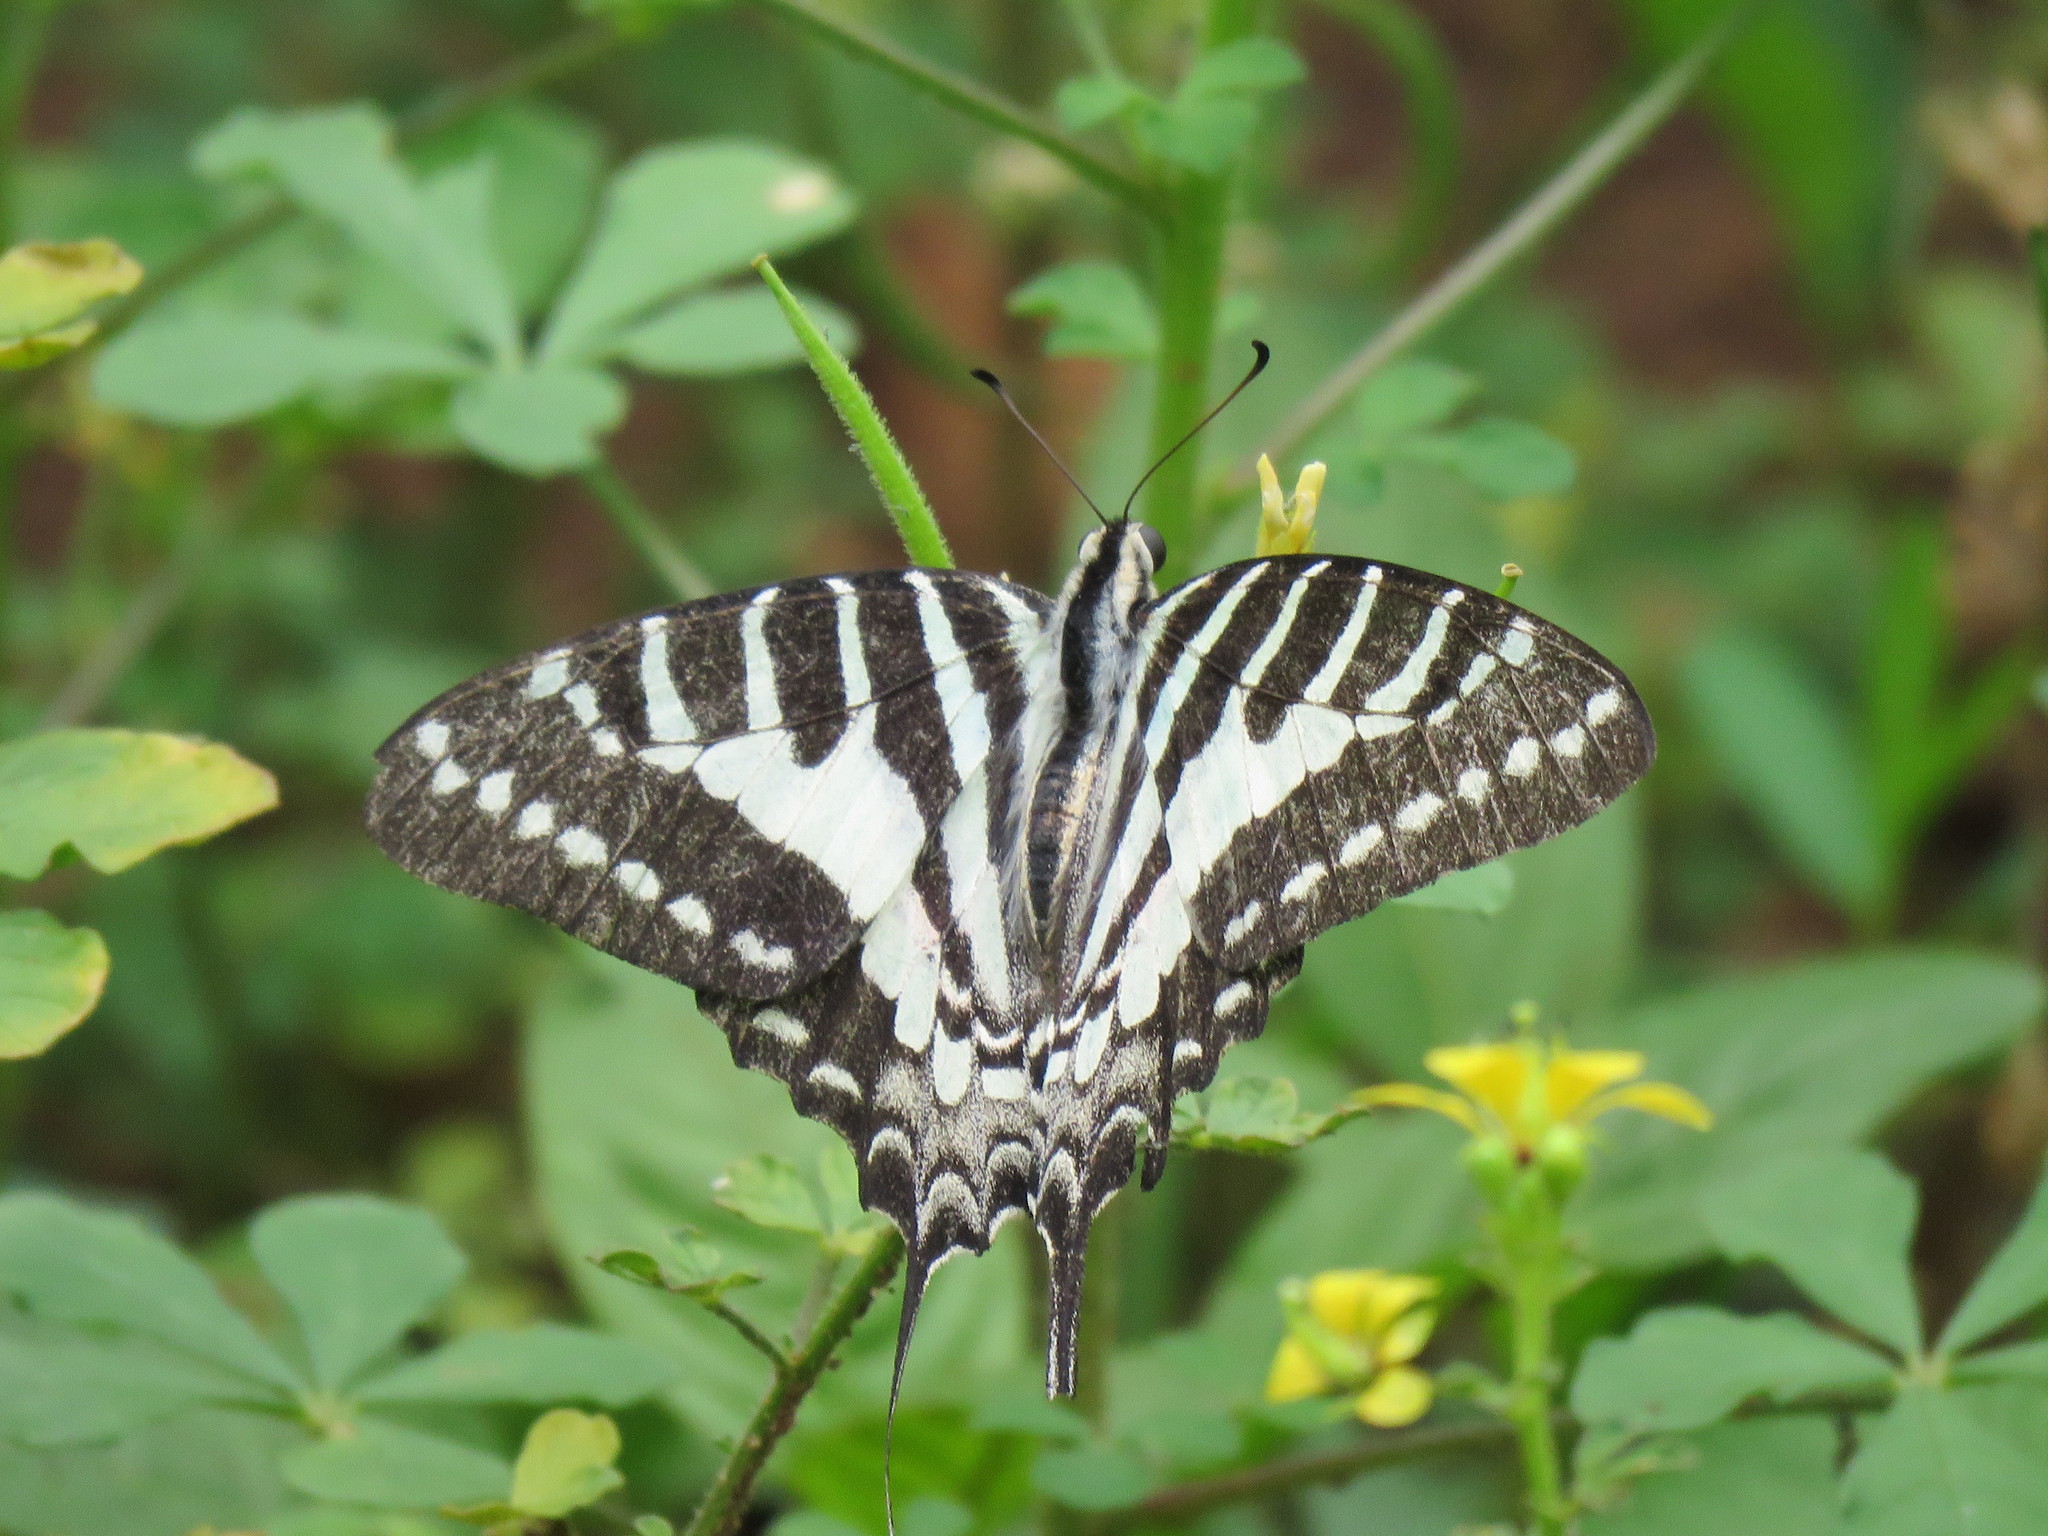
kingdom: Animalia
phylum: Arthropoda
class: Insecta
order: Lepidoptera
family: Papilionidae
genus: Graphium
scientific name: Graphium nomius
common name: Spot swordtail
